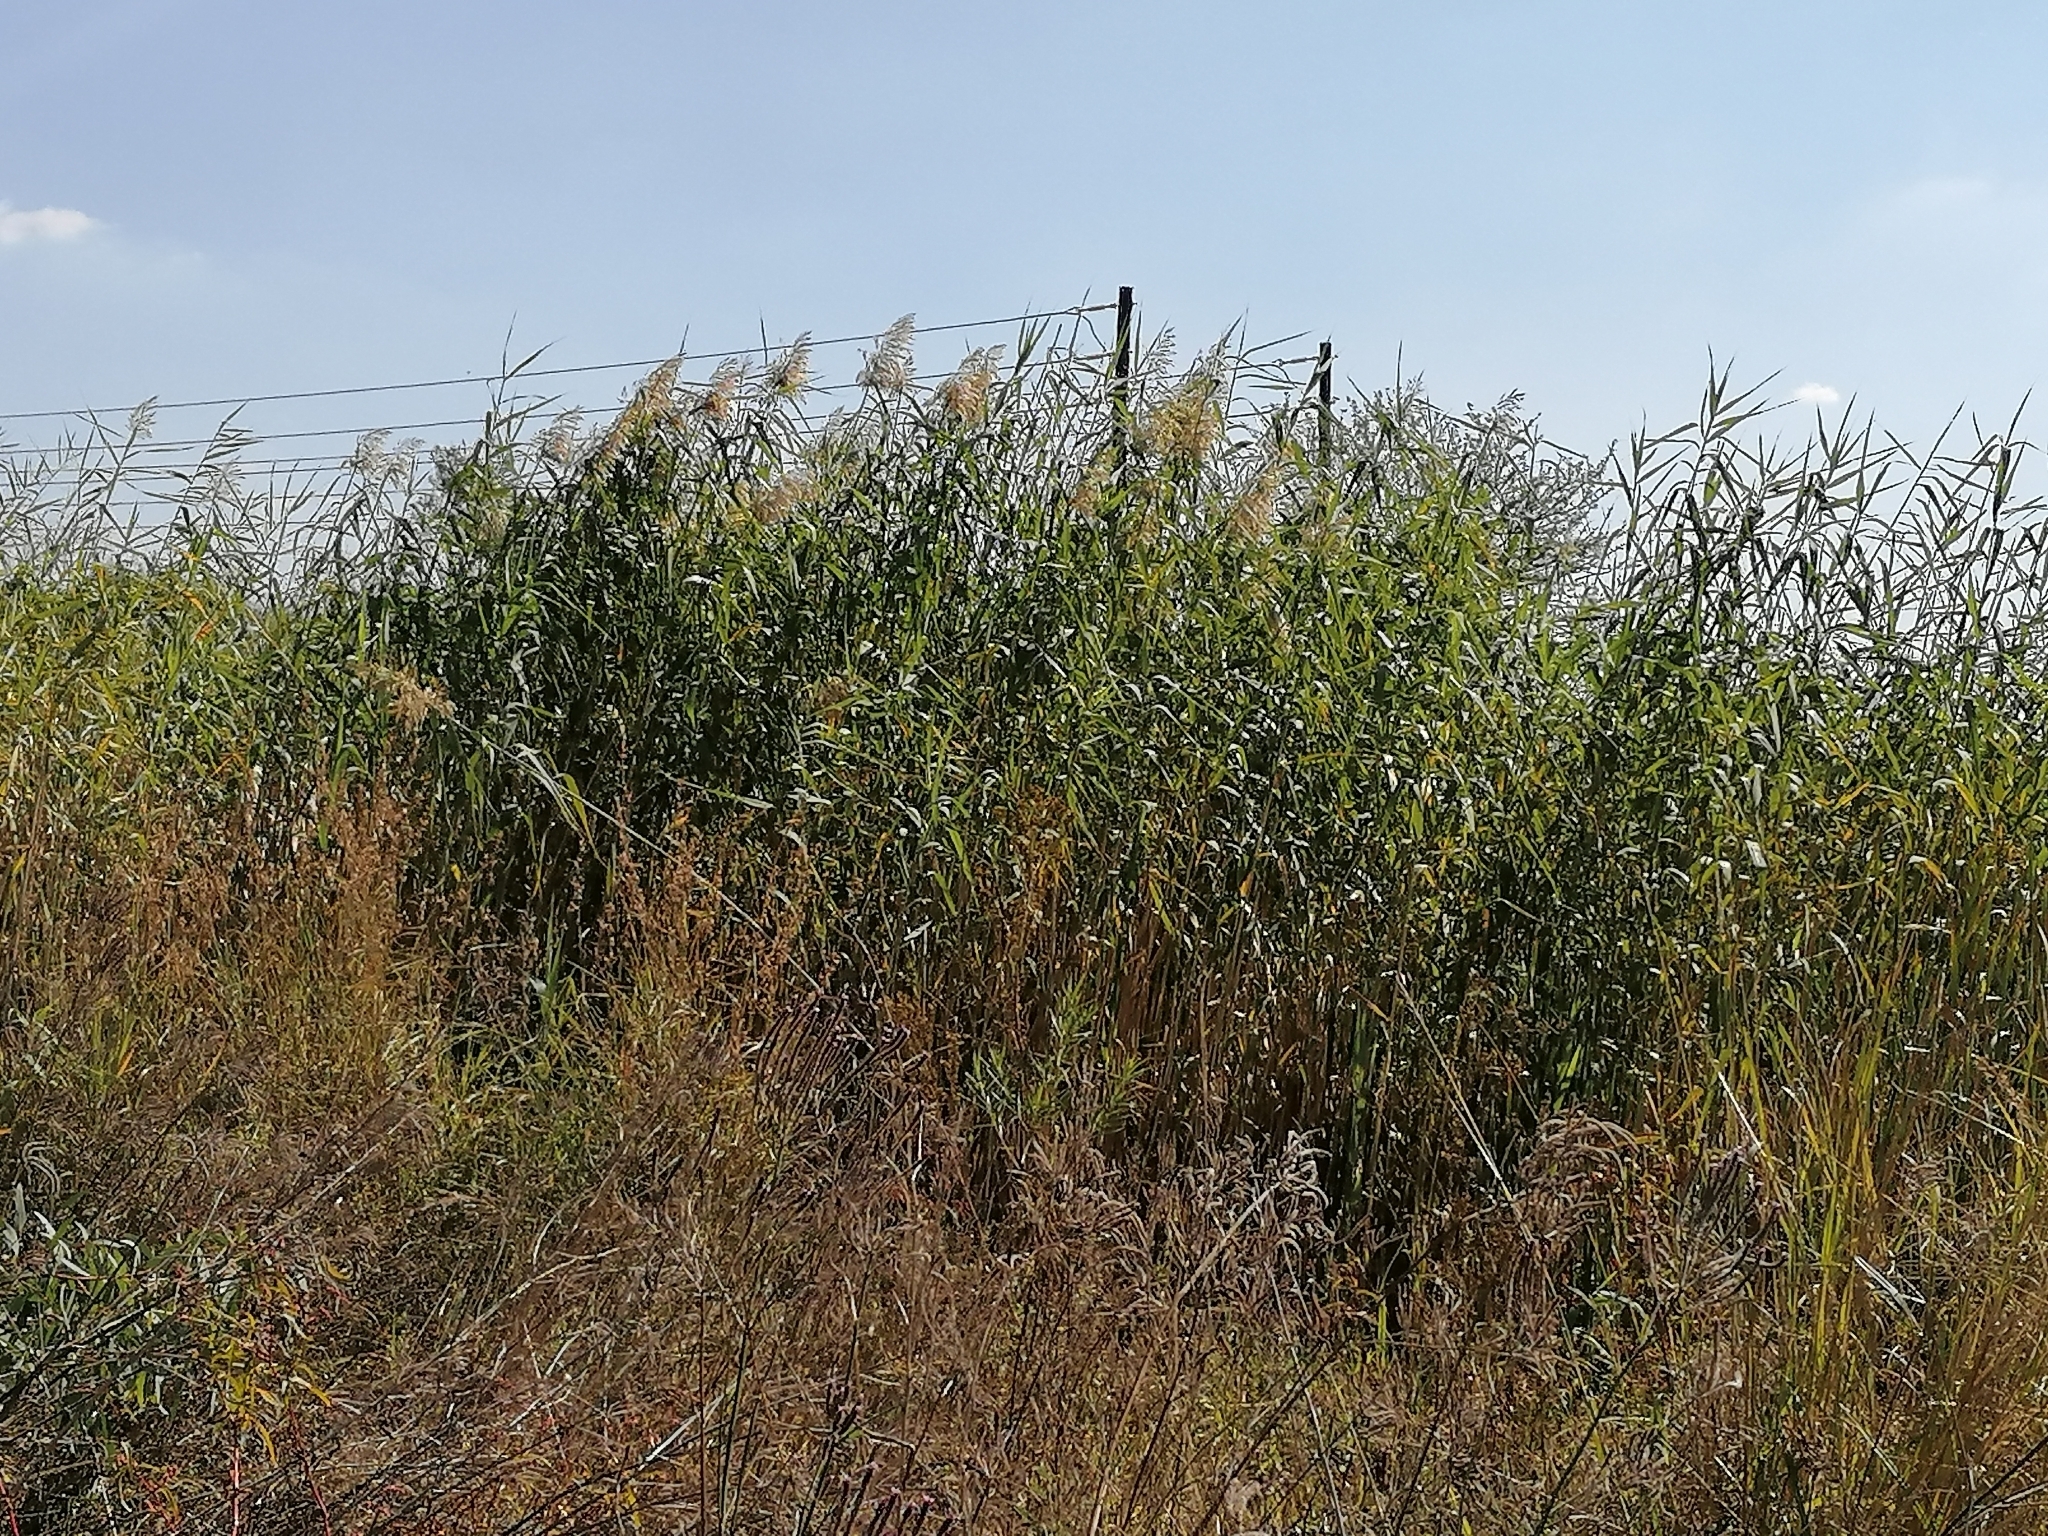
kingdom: Plantae
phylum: Tracheophyta
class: Liliopsida
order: Poales
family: Poaceae
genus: Phragmites
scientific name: Phragmites australis
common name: Common reed
